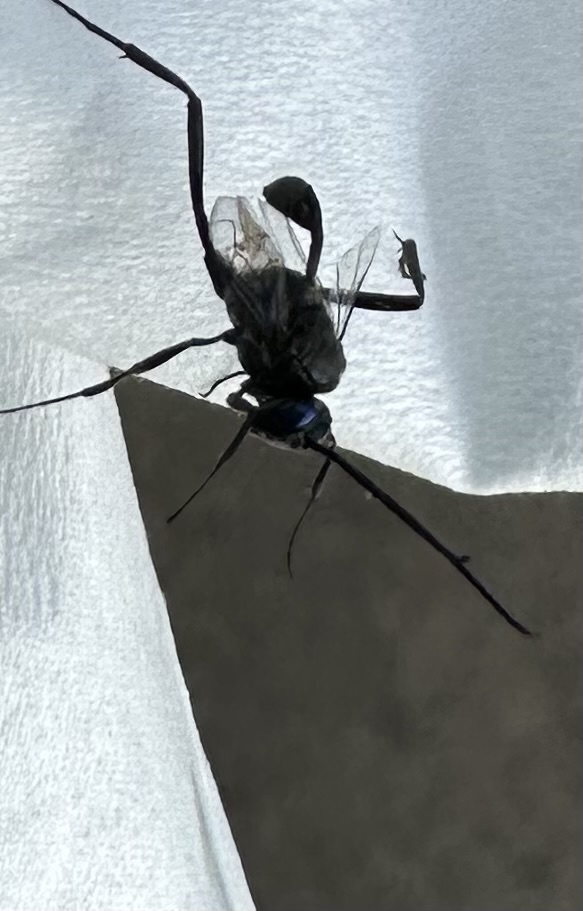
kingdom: Animalia
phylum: Arthropoda
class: Insecta
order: Hymenoptera
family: Evaniidae
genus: Evania
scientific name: Evania appendigaster
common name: Ensign wasp
